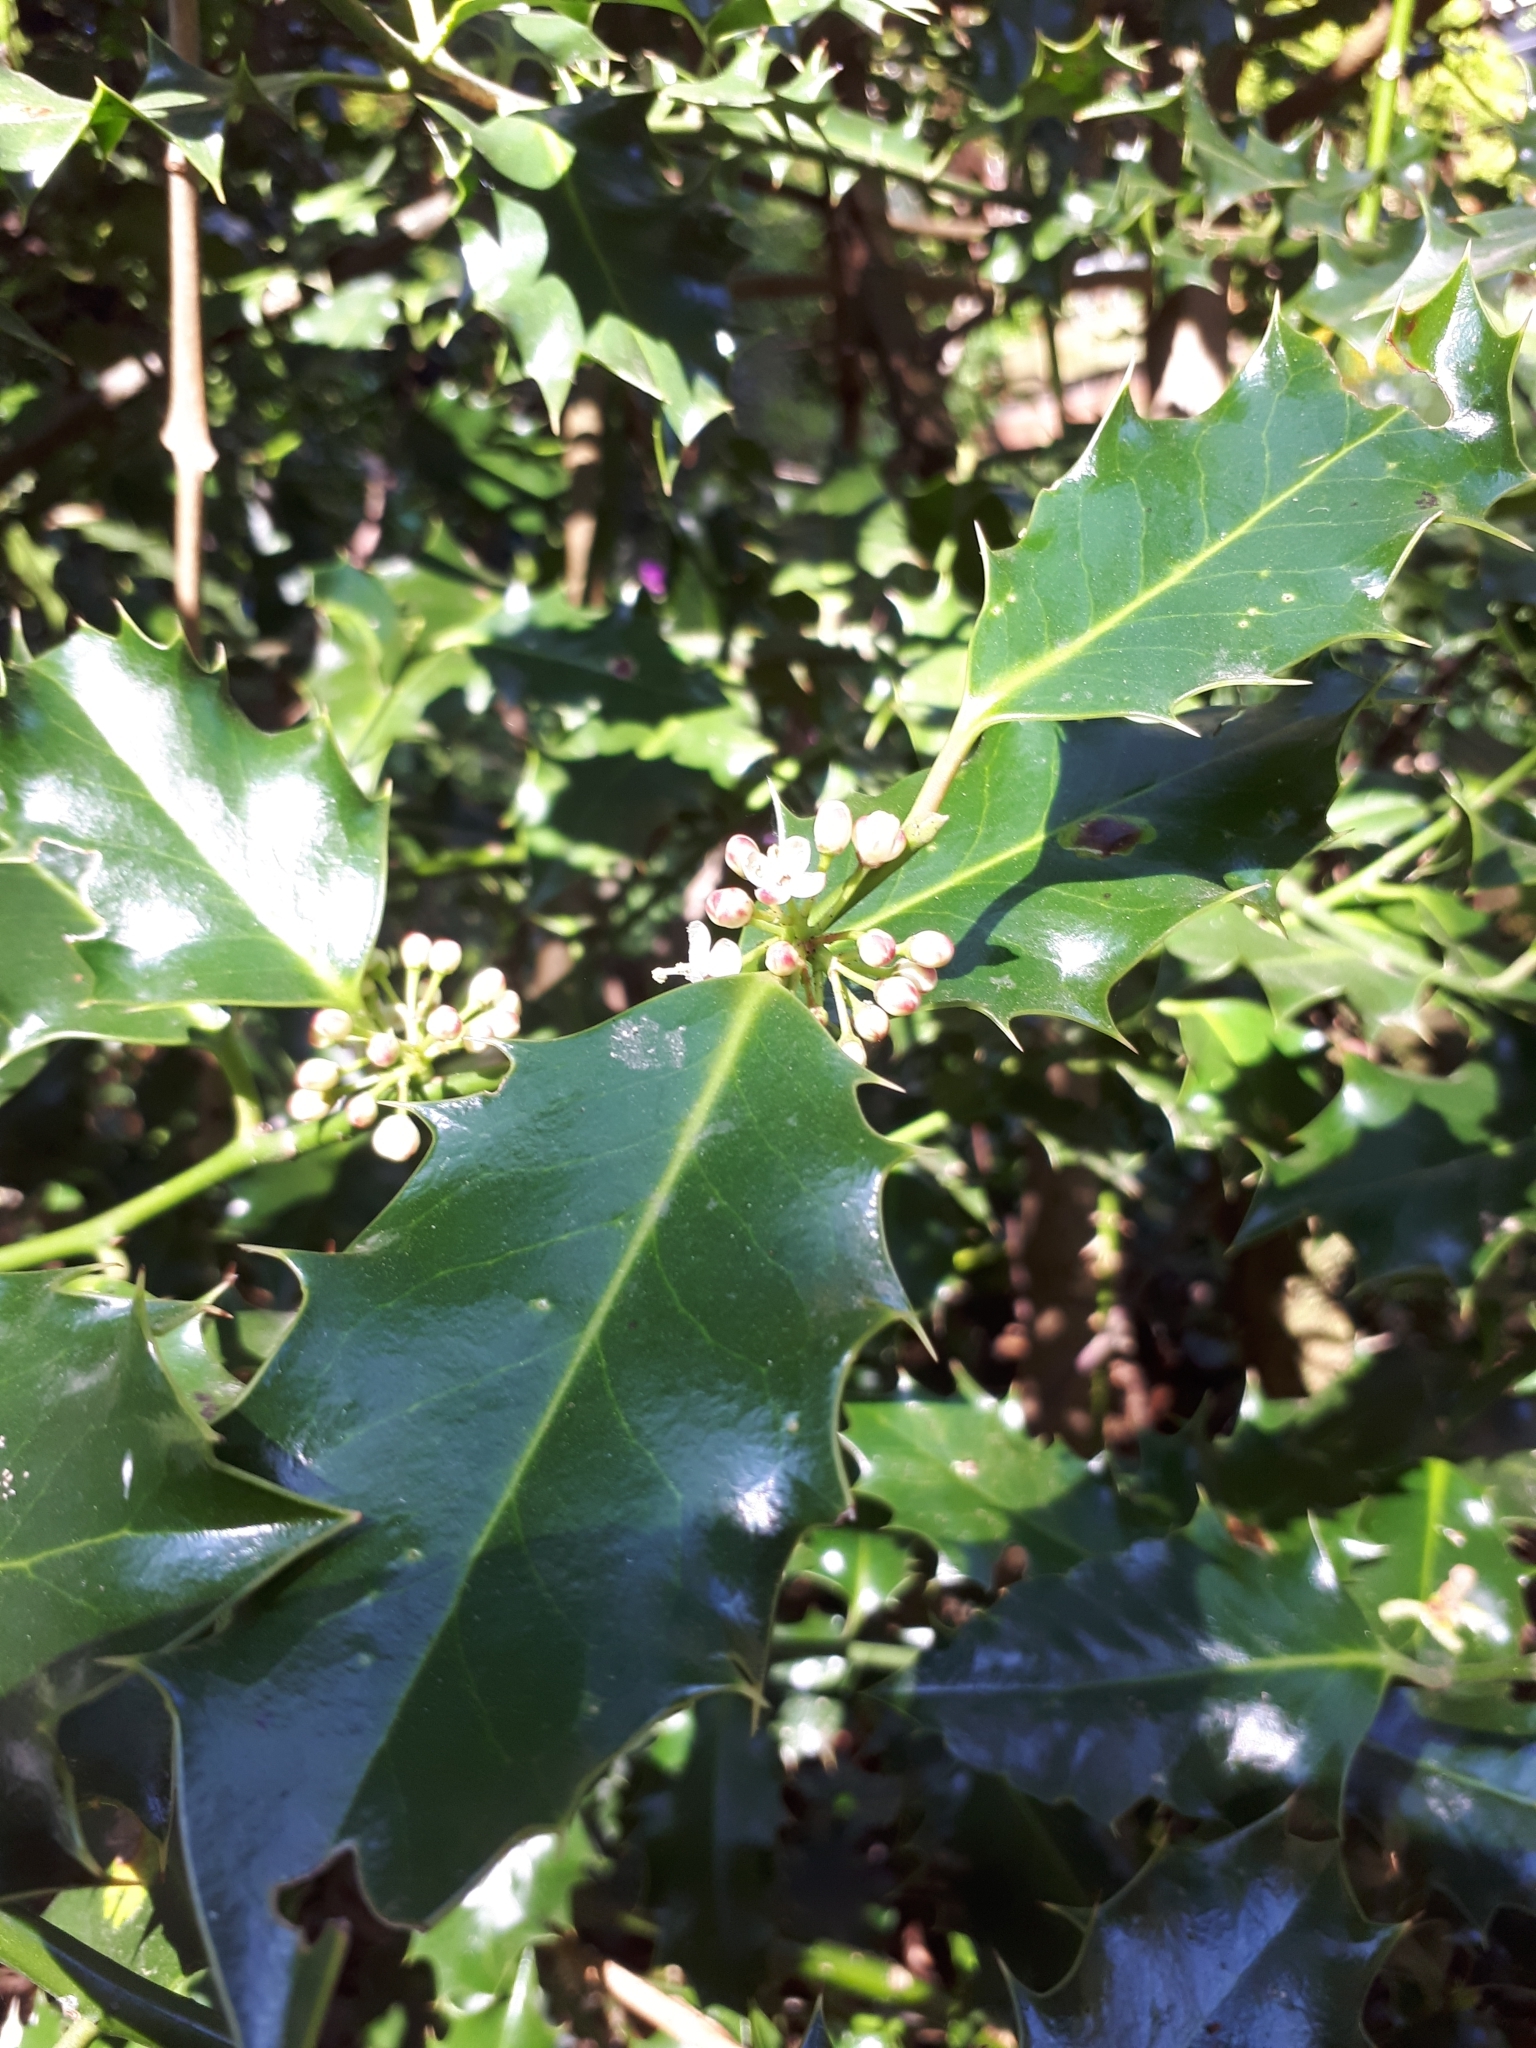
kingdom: Plantae
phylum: Tracheophyta
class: Magnoliopsida
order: Aquifoliales
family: Aquifoliaceae
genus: Ilex
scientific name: Ilex aquifolium
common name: English holly
